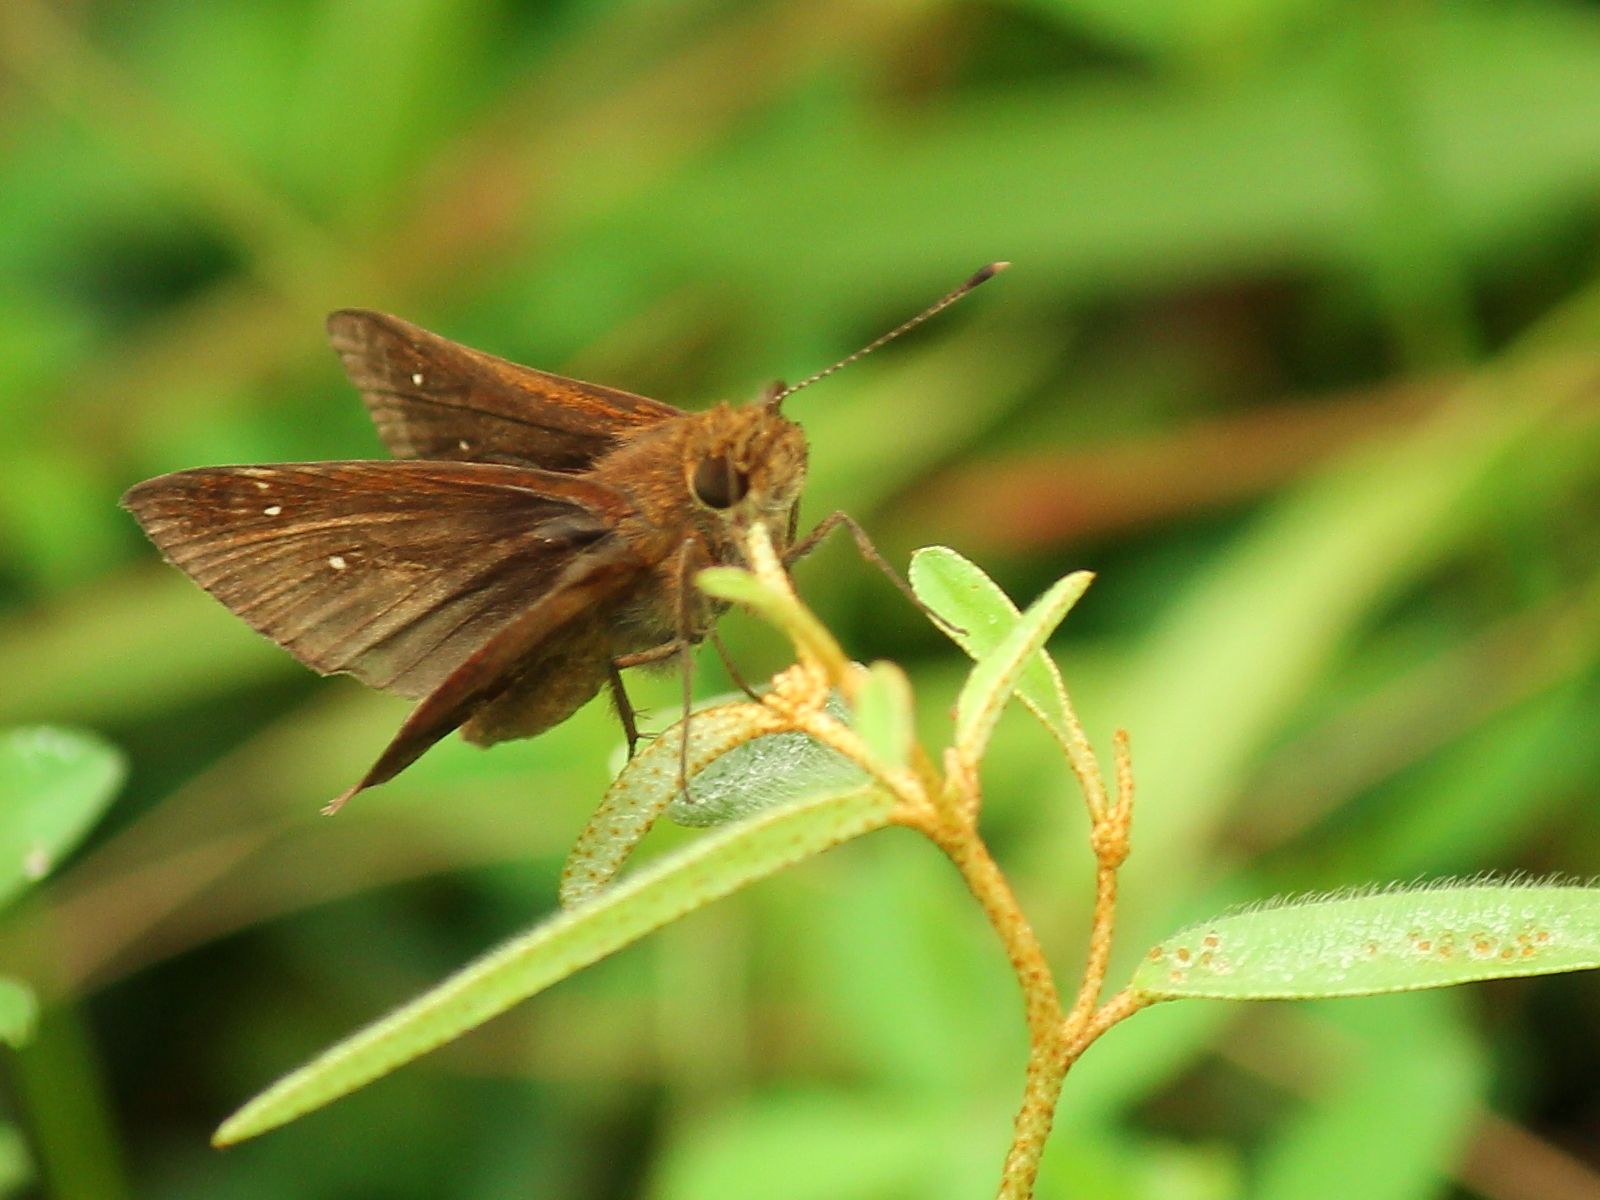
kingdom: Animalia
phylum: Arthropoda
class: Insecta
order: Lepidoptera
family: Hesperiidae
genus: Lerema
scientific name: Lerema accius
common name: Clouded skipper
